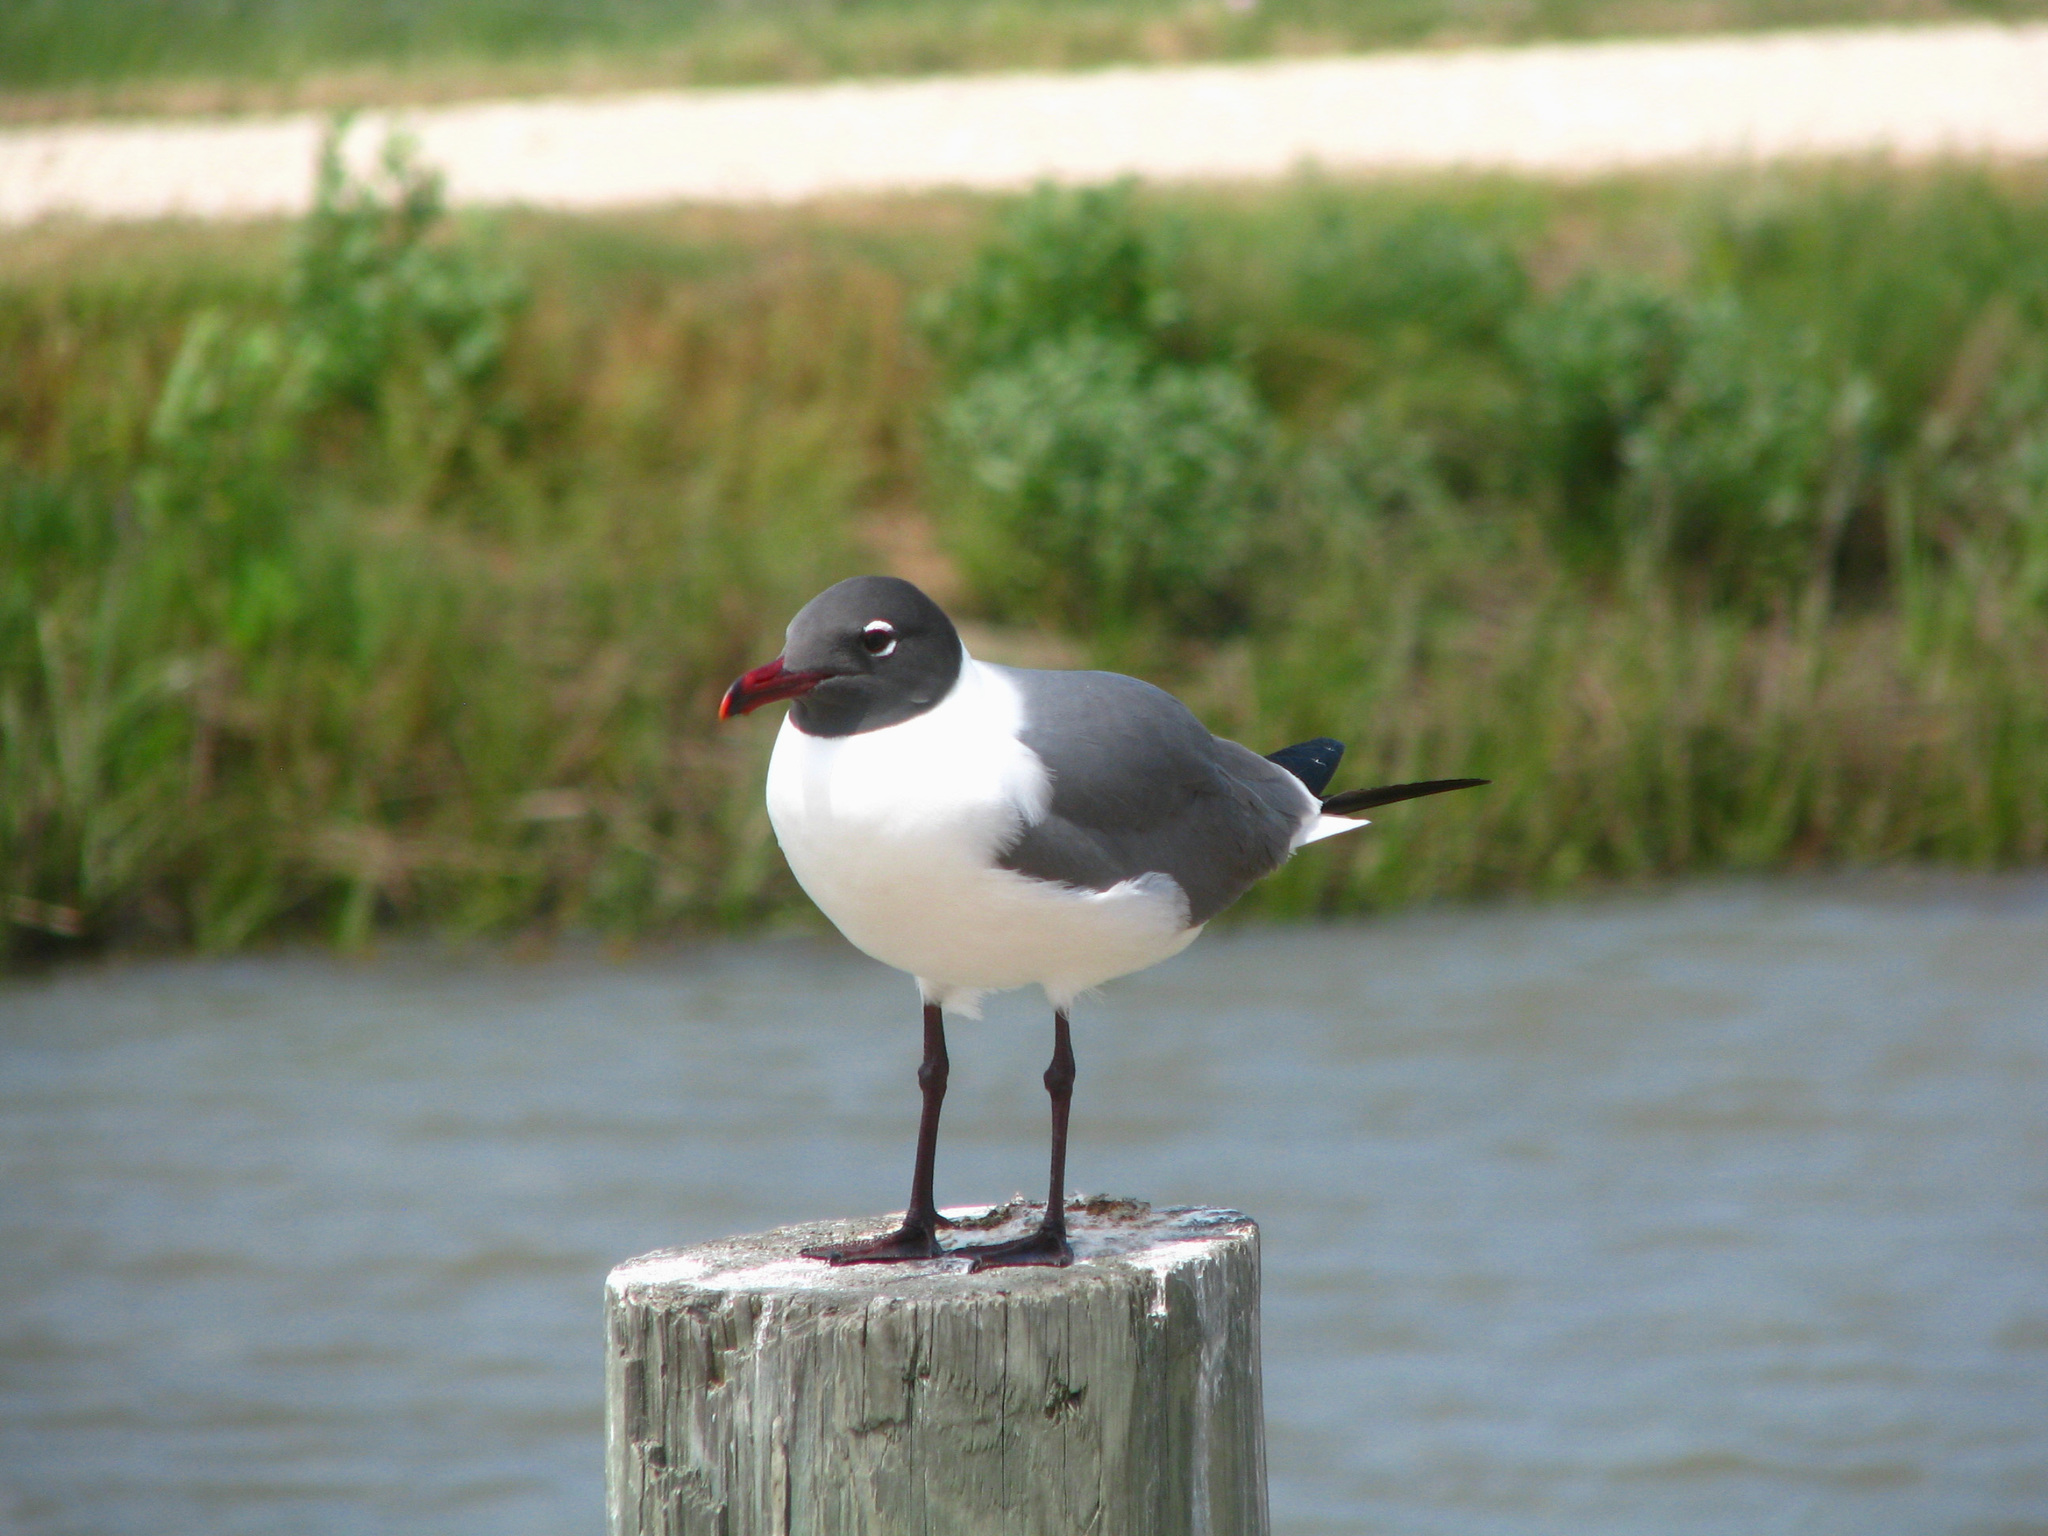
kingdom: Animalia
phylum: Chordata
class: Aves
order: Charadriiformes
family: Laridae
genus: Leucophaeus
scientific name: Leucophaeus atricilla
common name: Laughing gull
